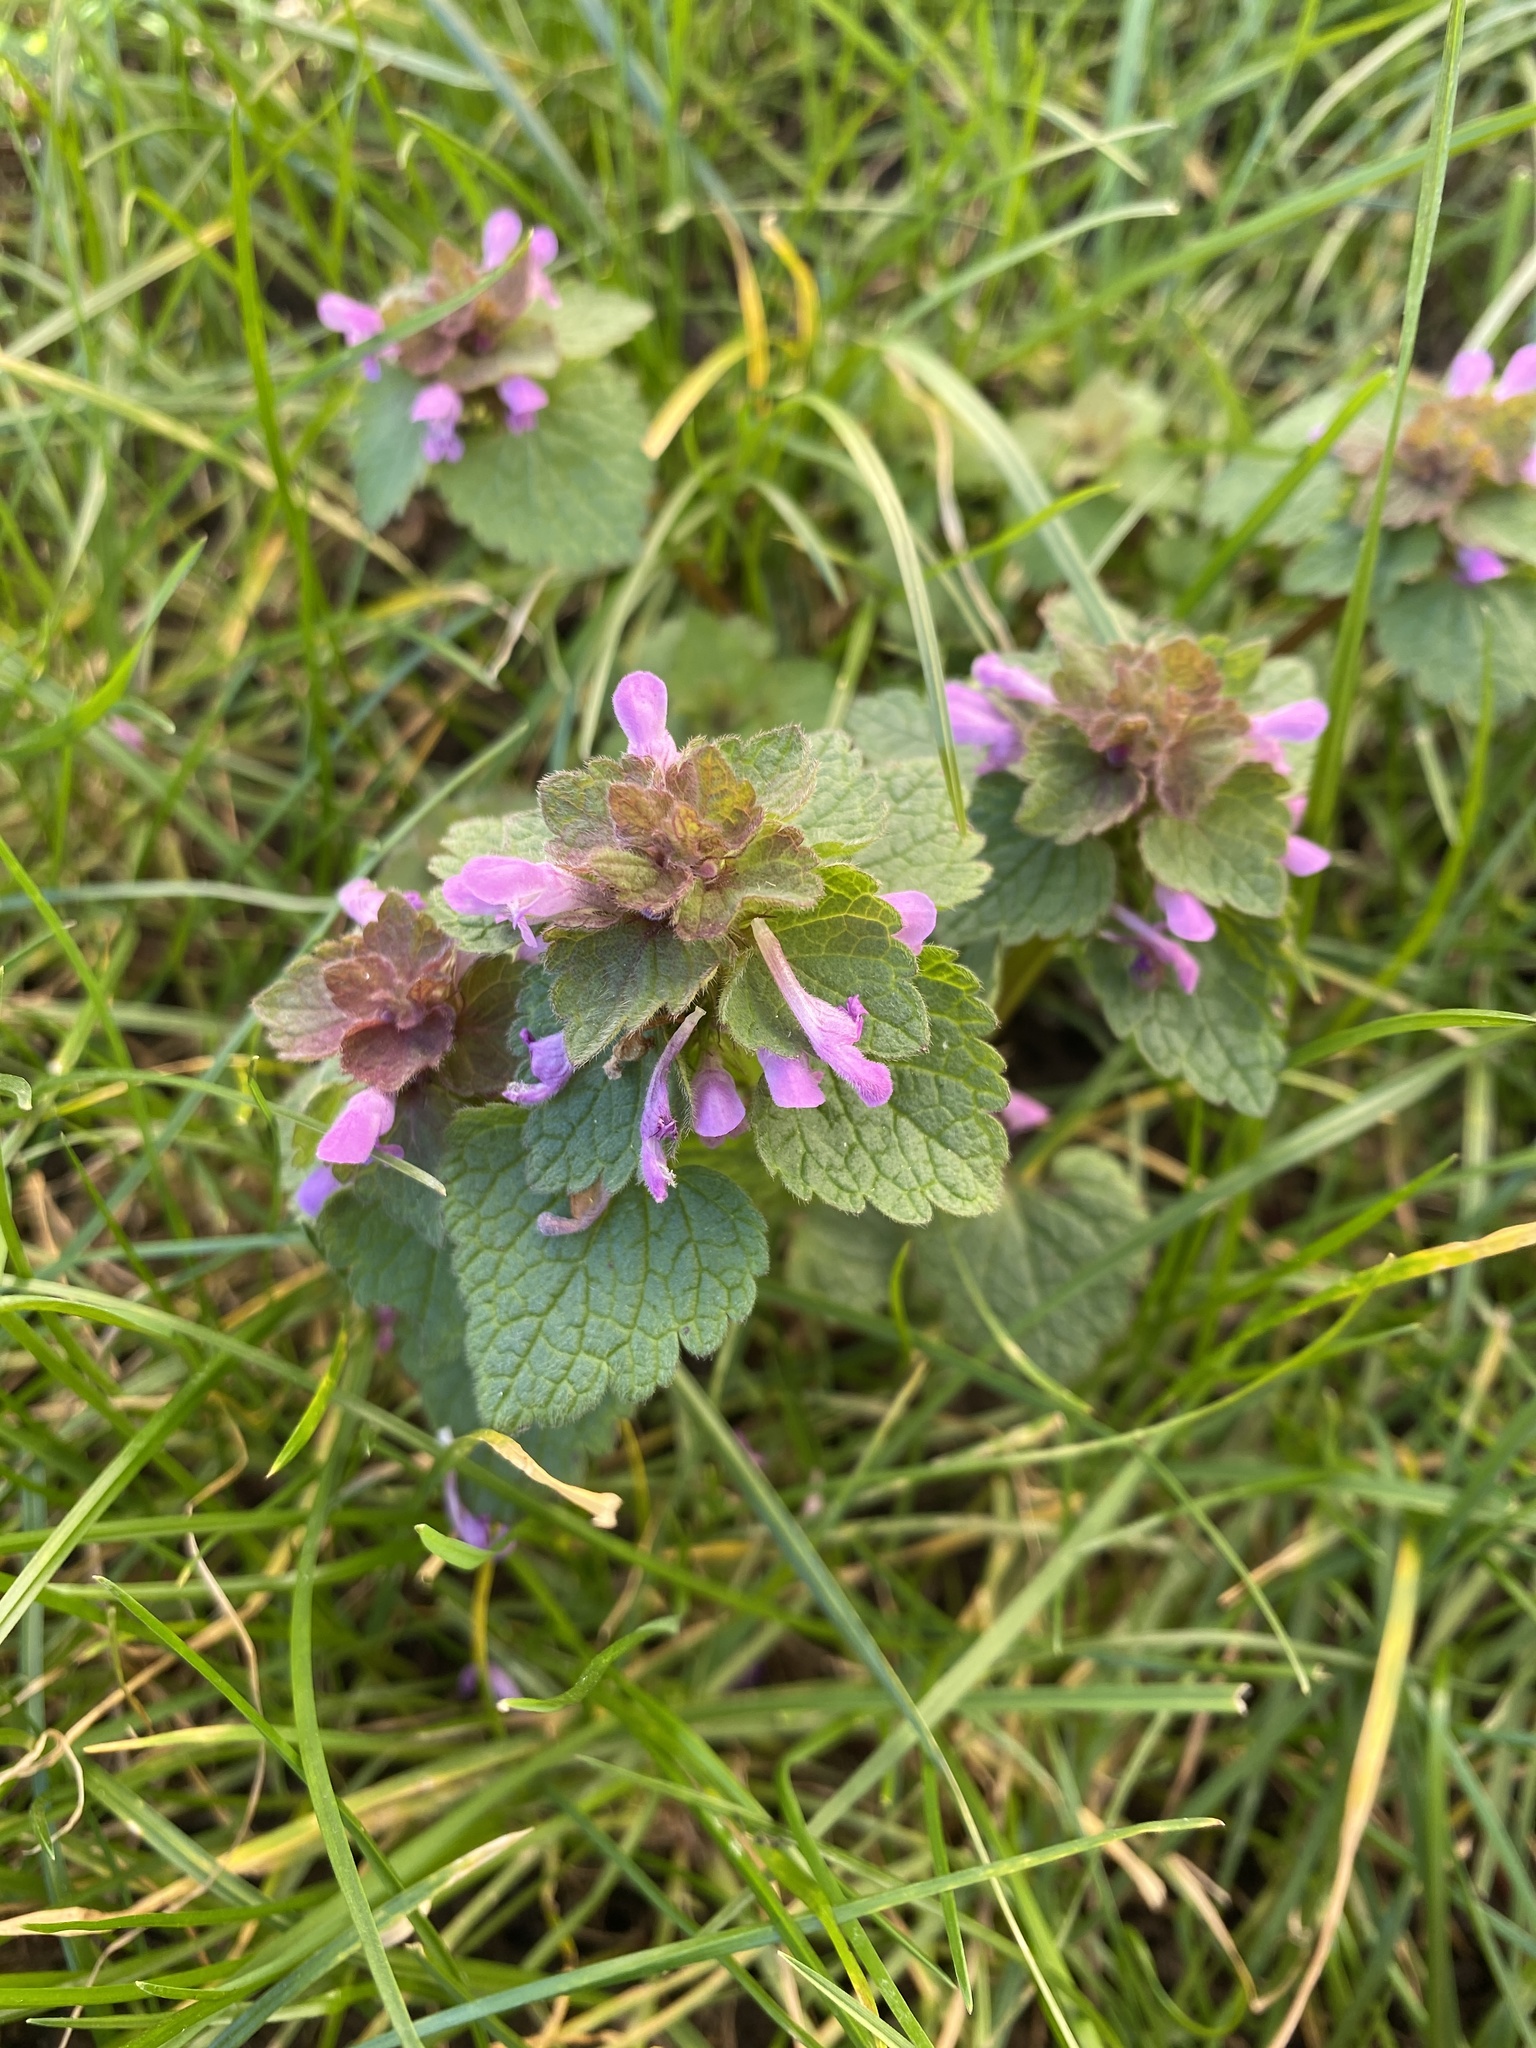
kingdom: Plantae
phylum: Tracheophyta
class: Magnoliopsida
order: Lamiales
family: Lamiaceae
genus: Lamium
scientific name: Lamium purpureum
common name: Red dead-nettle
